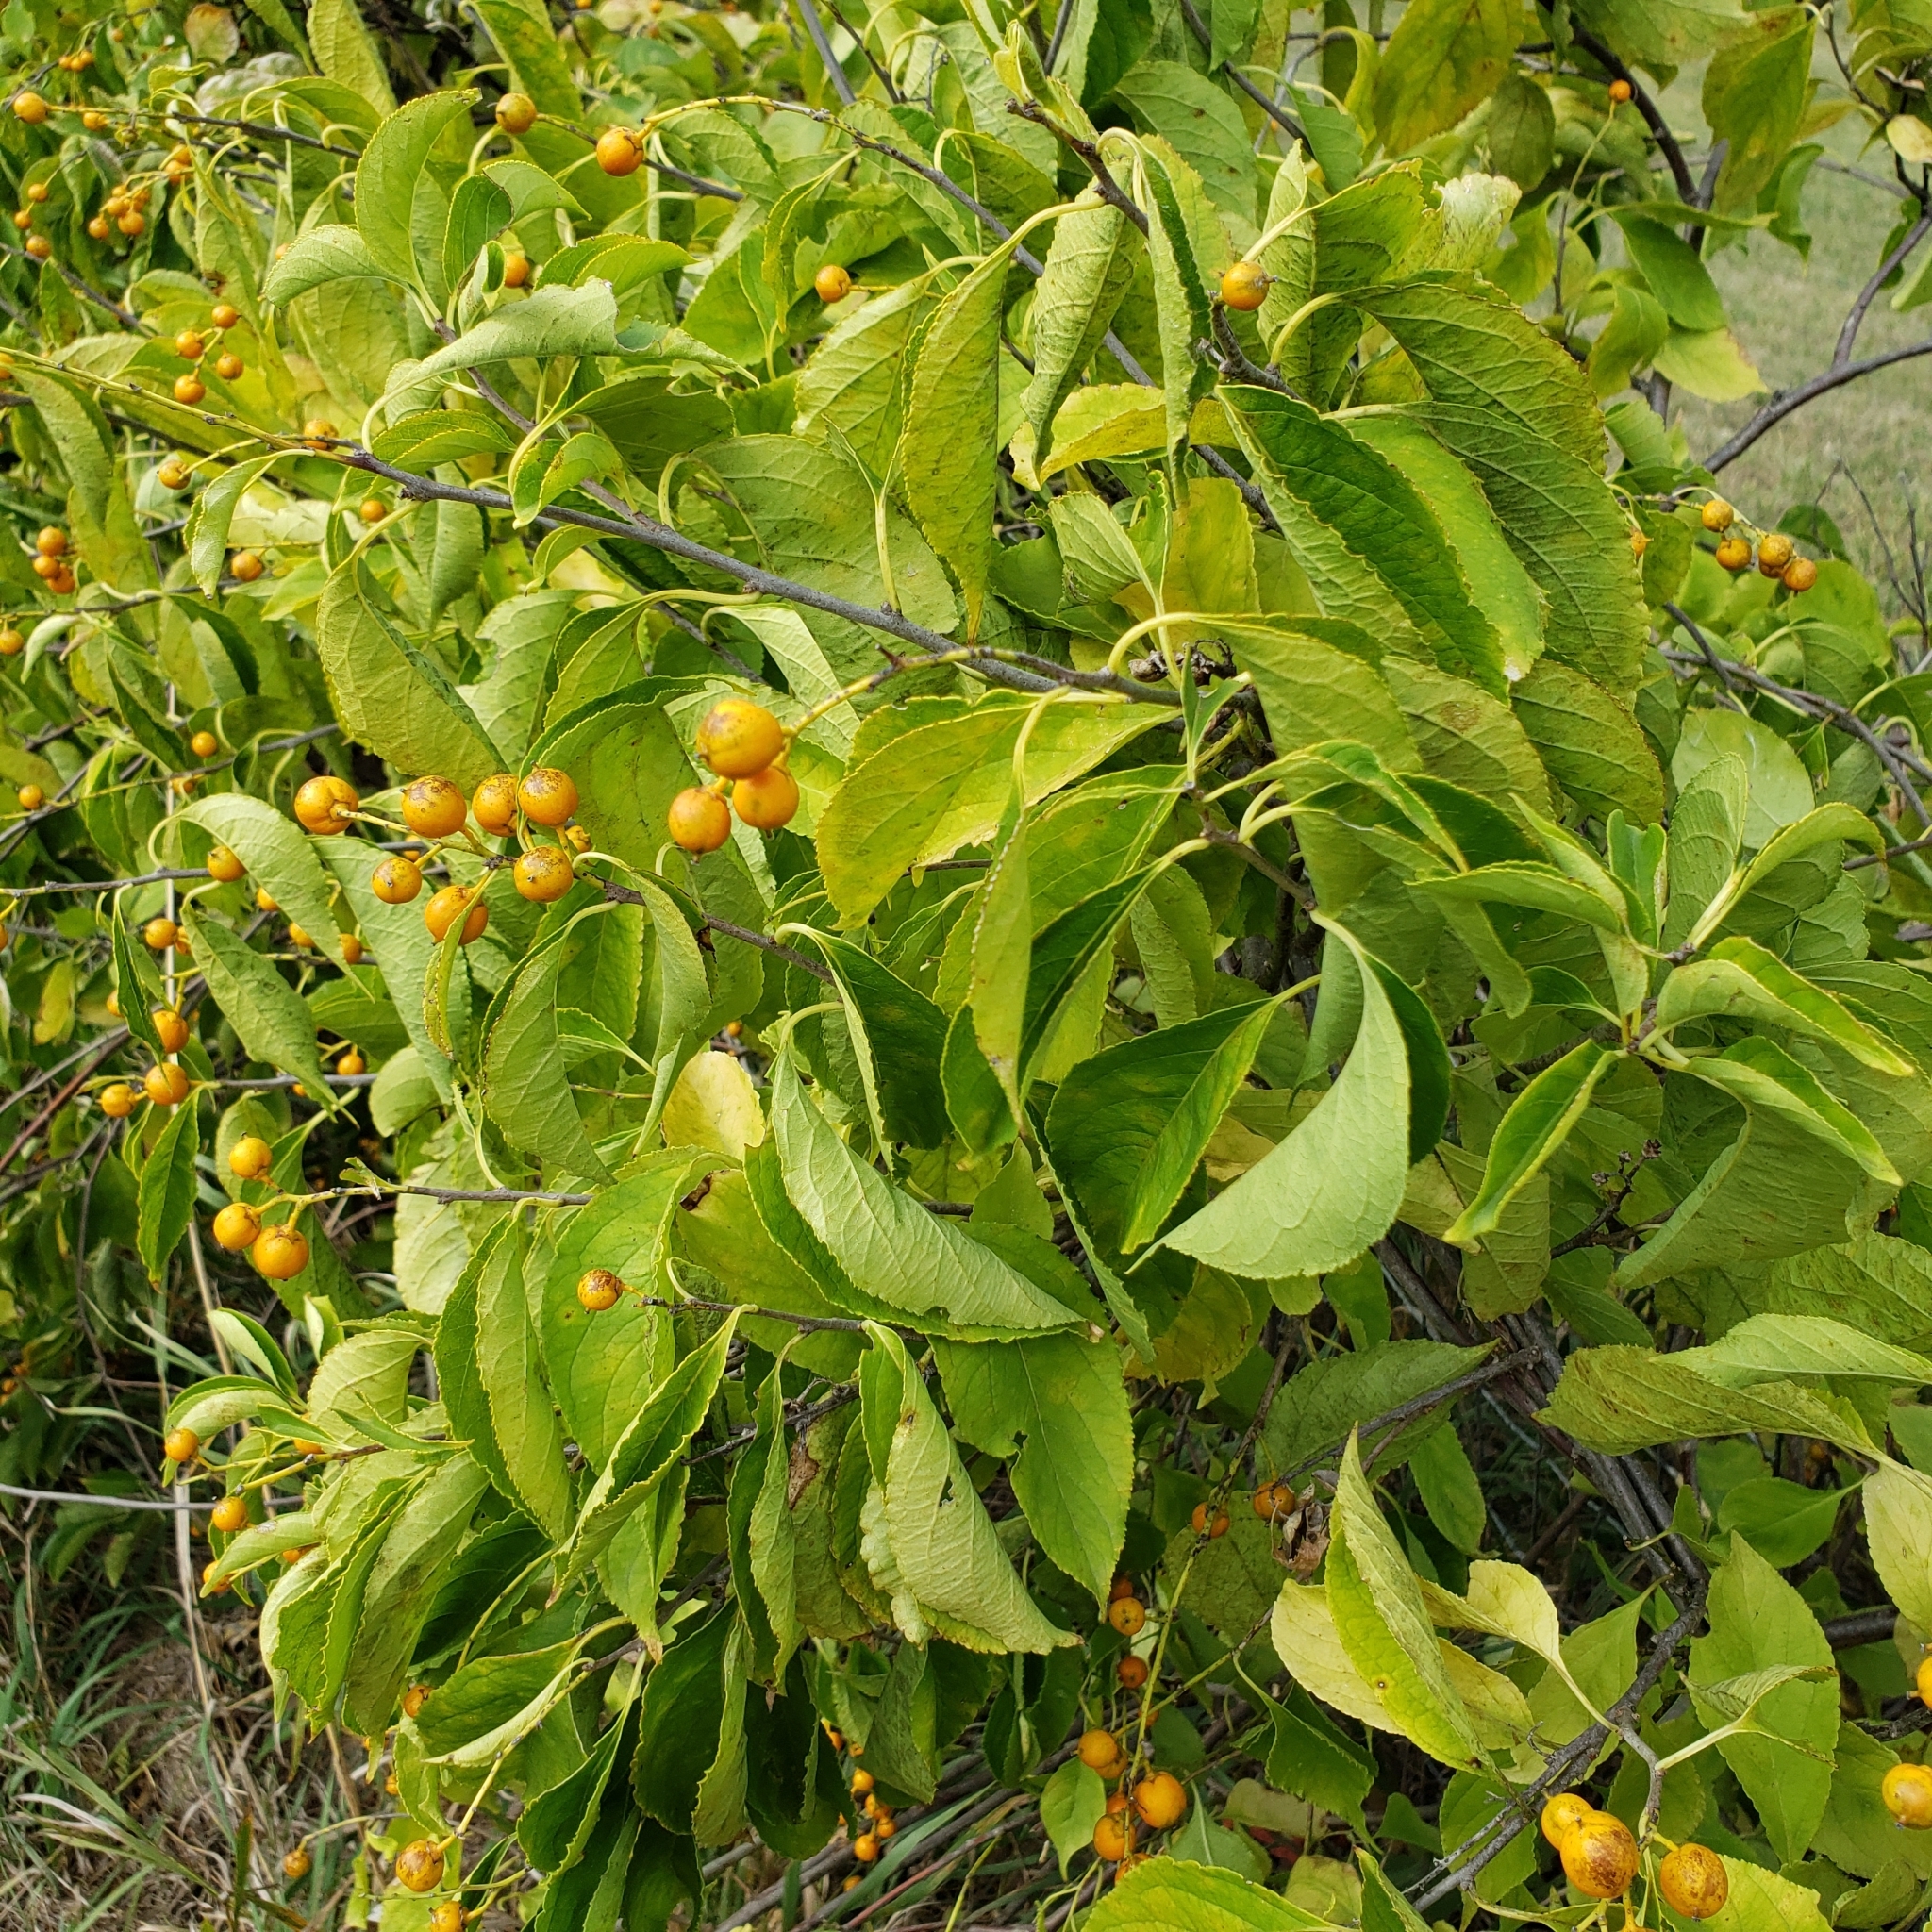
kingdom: Plantae
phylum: Tracheophyta
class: Magnoliopsida
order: Celastrales
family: Celastraceae
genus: Celastrus
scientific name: Celastrus scandens
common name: American bittersweet
